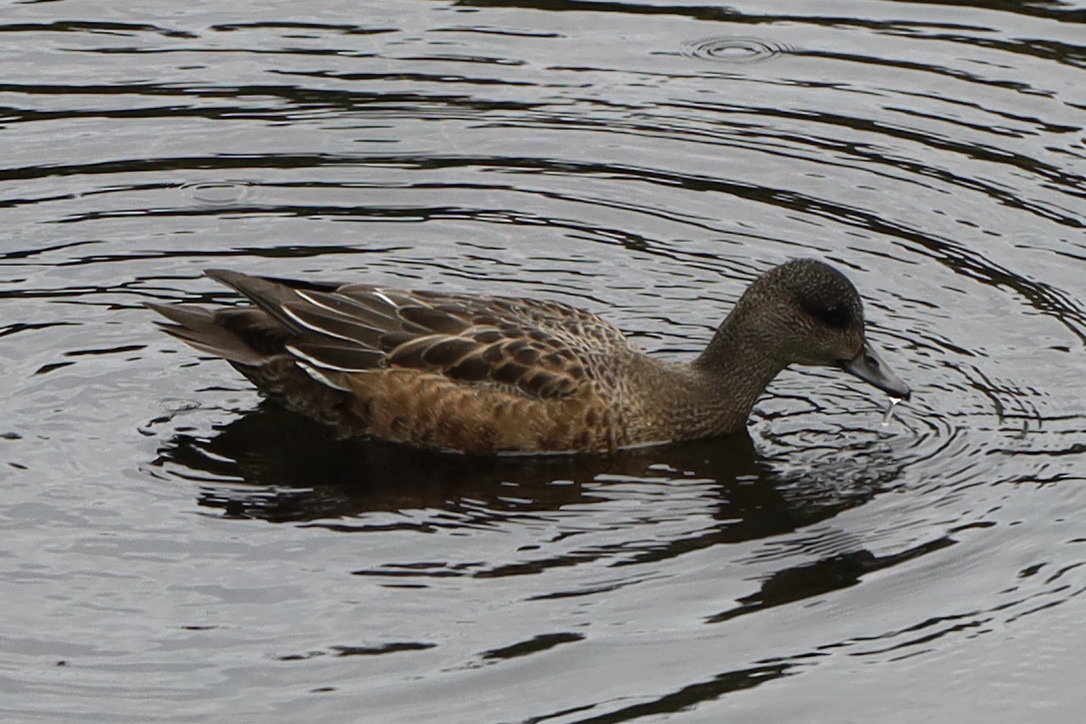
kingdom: Animalia
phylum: Chordata
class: Aves
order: Anseriformes
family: Anatidae
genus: Mareca
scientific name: Mareca americana
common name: American wigeon
